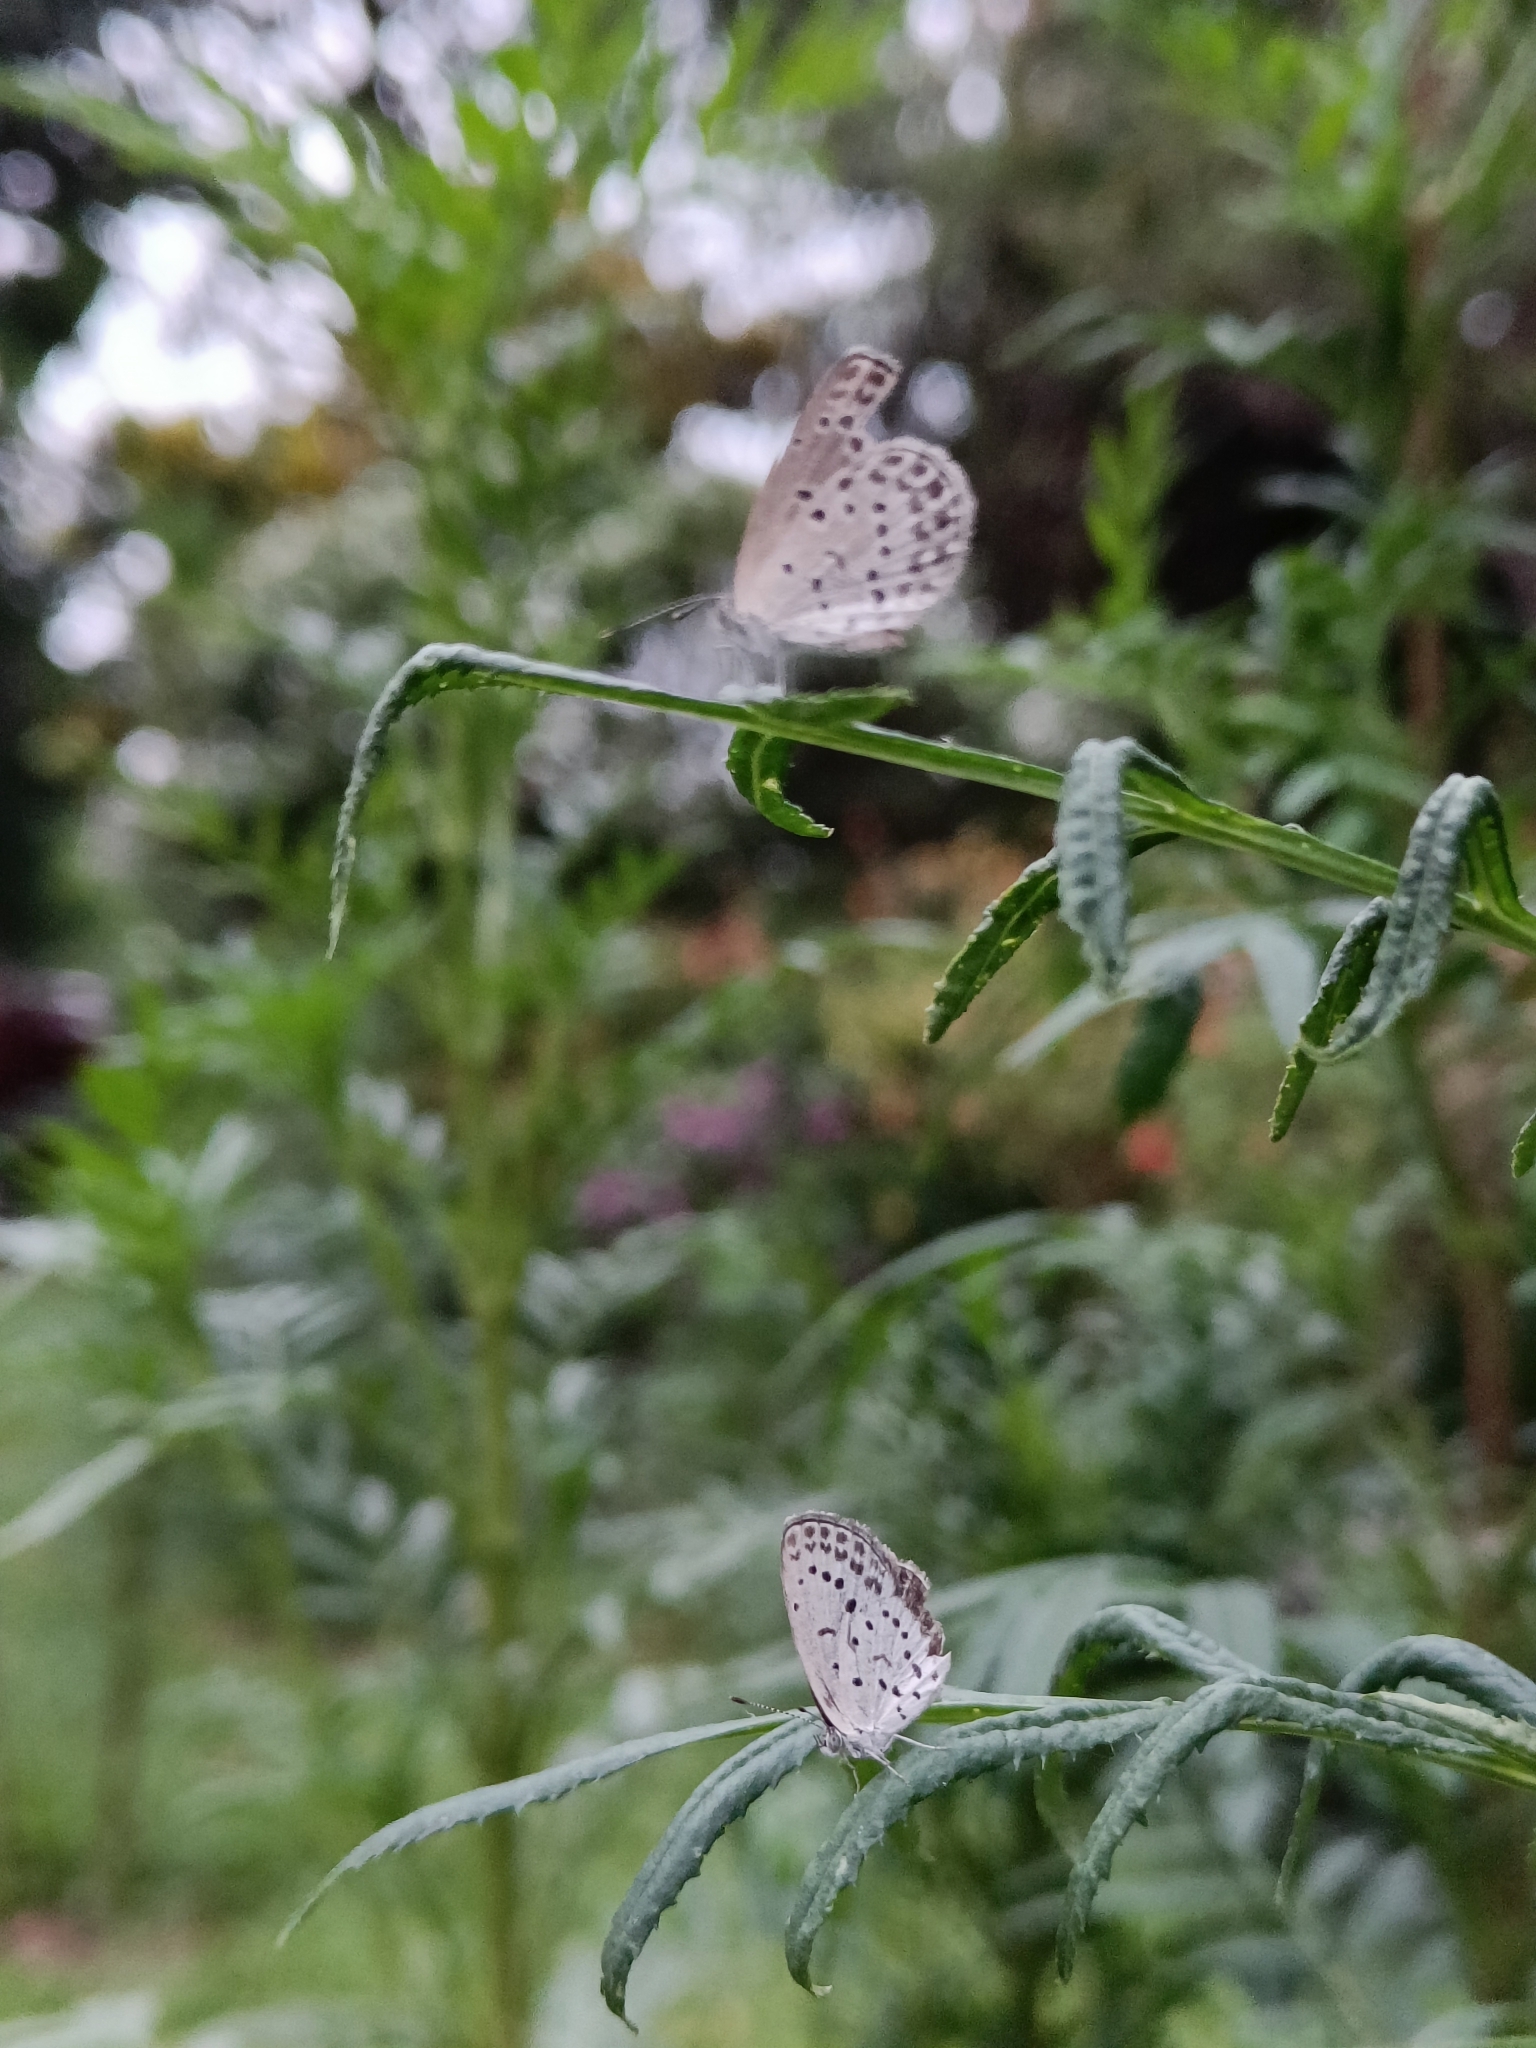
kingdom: Animalia
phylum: Arthropoda
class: Insecta
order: Lepidoptera
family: Lycaenidae
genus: Pseudozizeeria
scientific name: Pseudozizeeria maha
